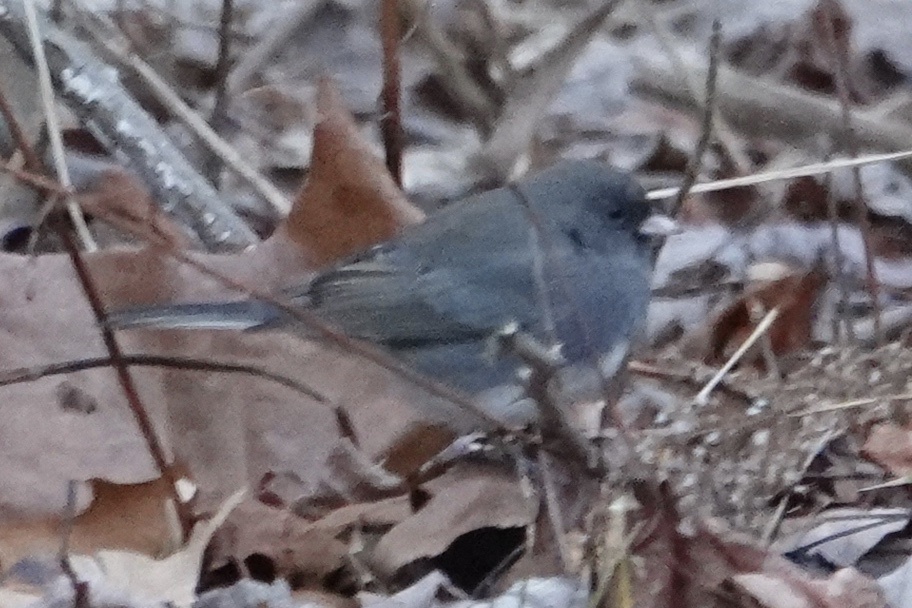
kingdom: Animalia
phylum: Chordata
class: Aves
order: Passeriformes
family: Passerellidae
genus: Junco
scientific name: Junco hyemalis
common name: Dark-eyed junco
